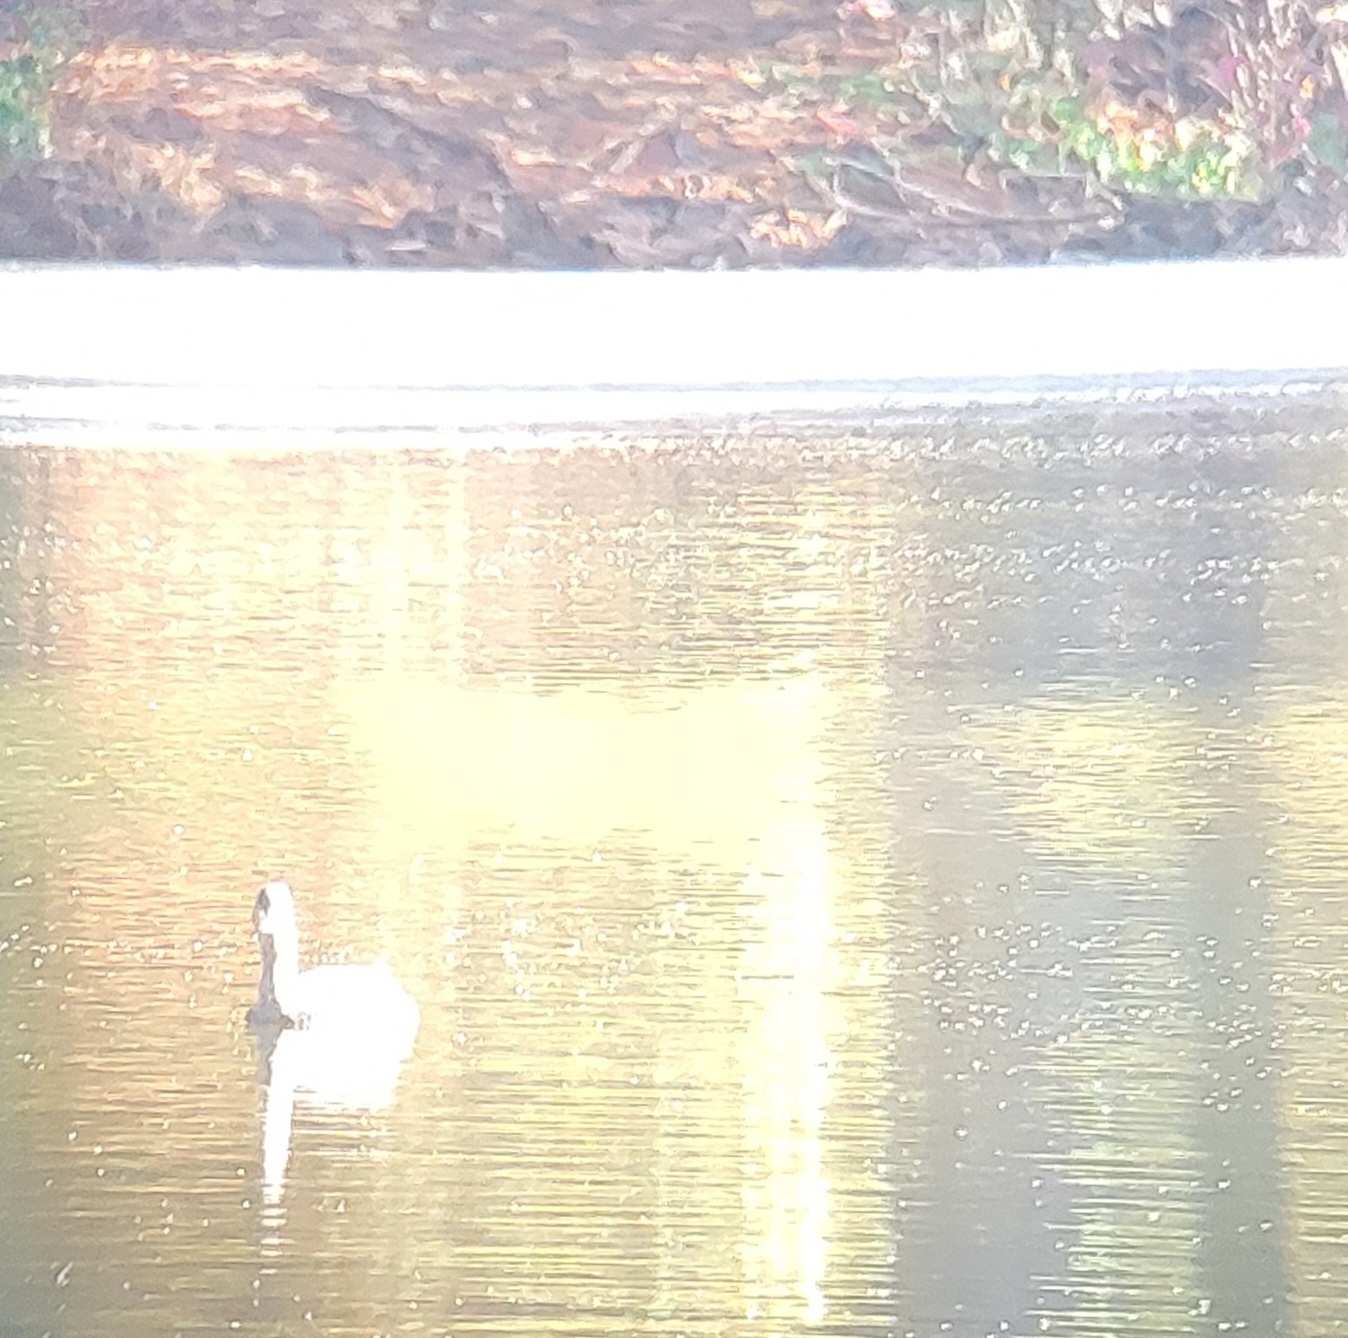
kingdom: Animalia
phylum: Chordata
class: Aves
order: Podicipediformes
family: Podicipedidae
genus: Podilymbus
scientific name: Podilymbus podiceps
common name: Pied-billed grebe
